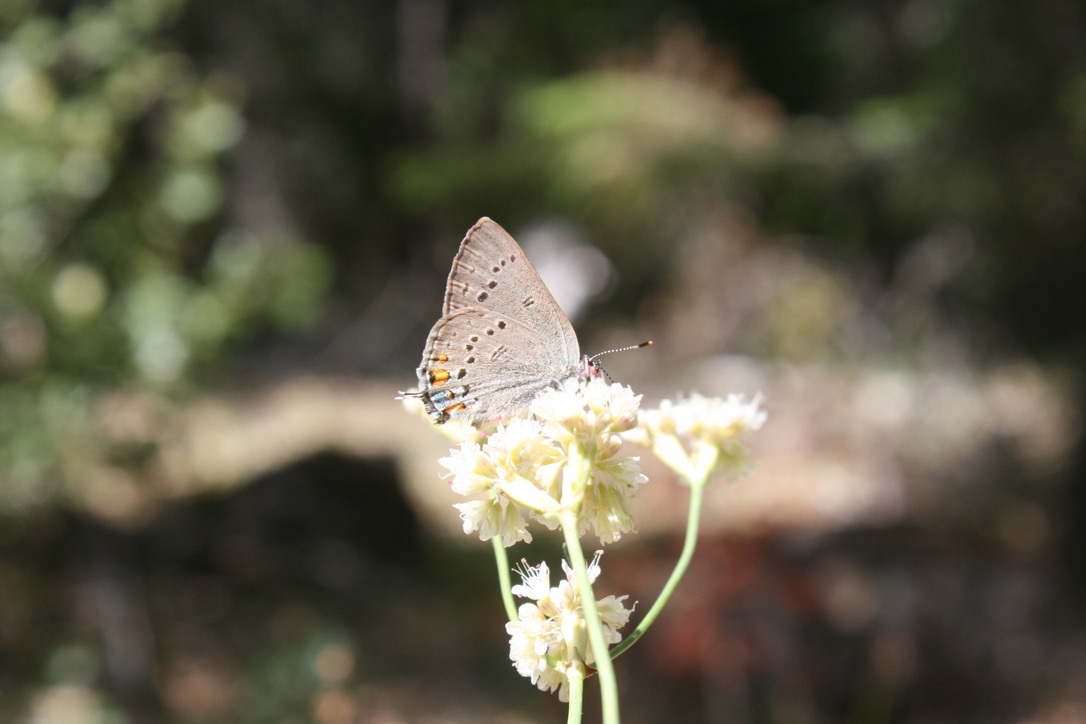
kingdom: Animalia
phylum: Arthropoda
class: Insecta
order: Lepidoptera
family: Lycaenidae
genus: Strymon
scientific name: Strymon acadica
